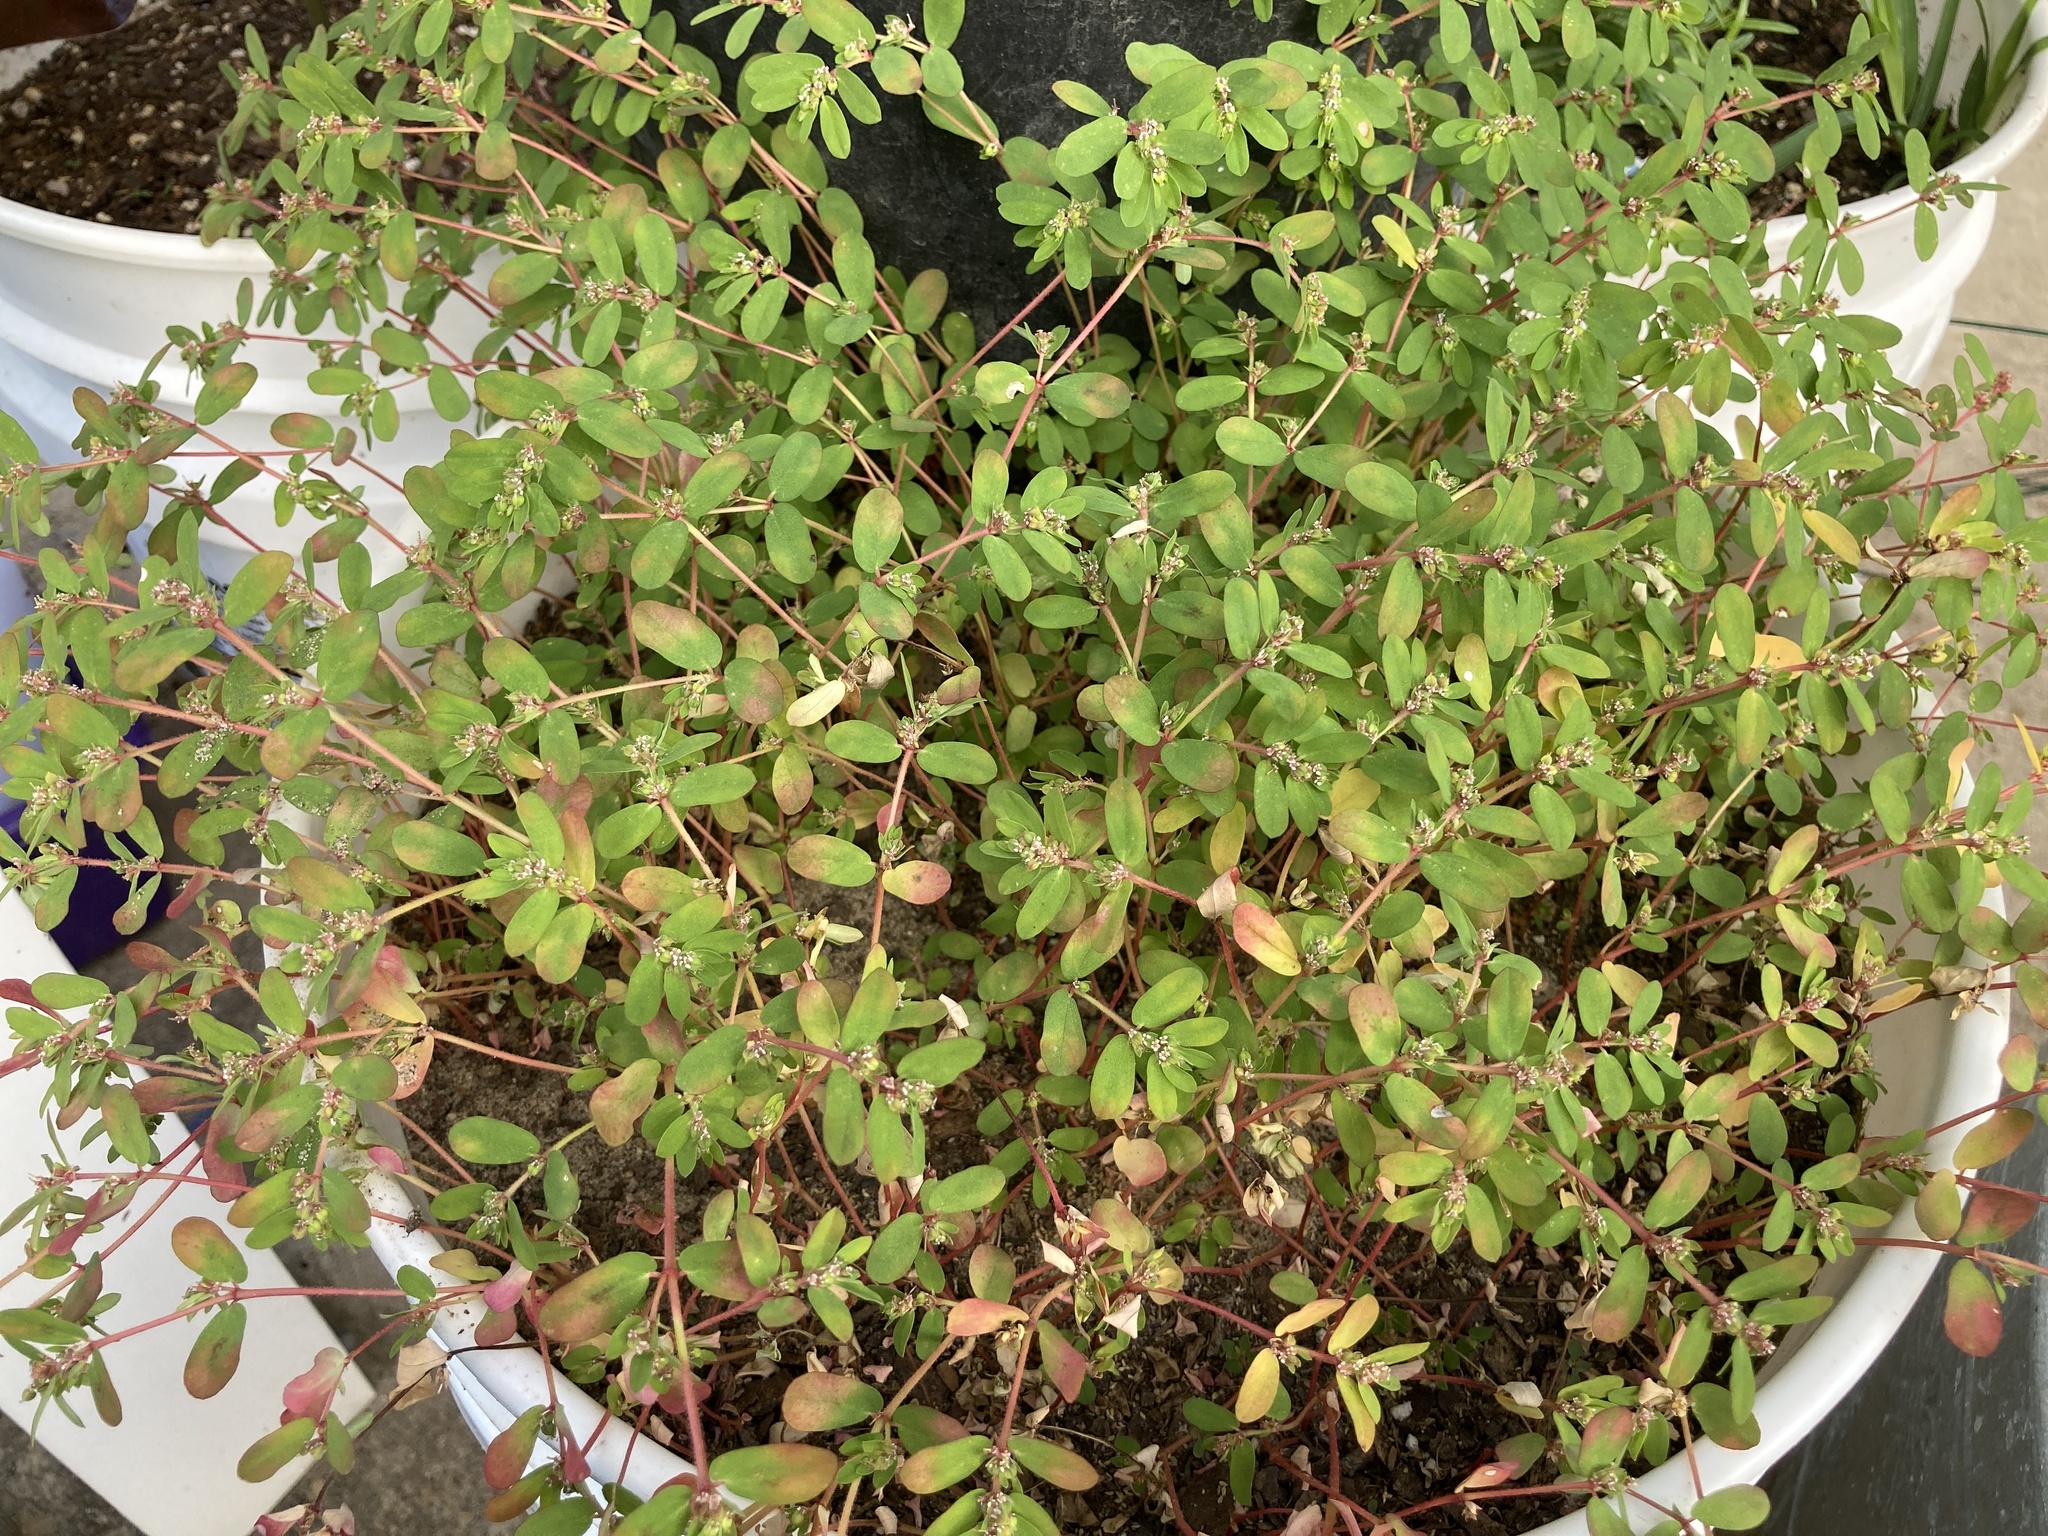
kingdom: Plantae
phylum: Tracheophyta
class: Magnoliopsida
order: Malpighiales
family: Euphorbiaceae
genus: Euphorbia
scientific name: Euphorbia humistrata
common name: Hairy spreading spurge
